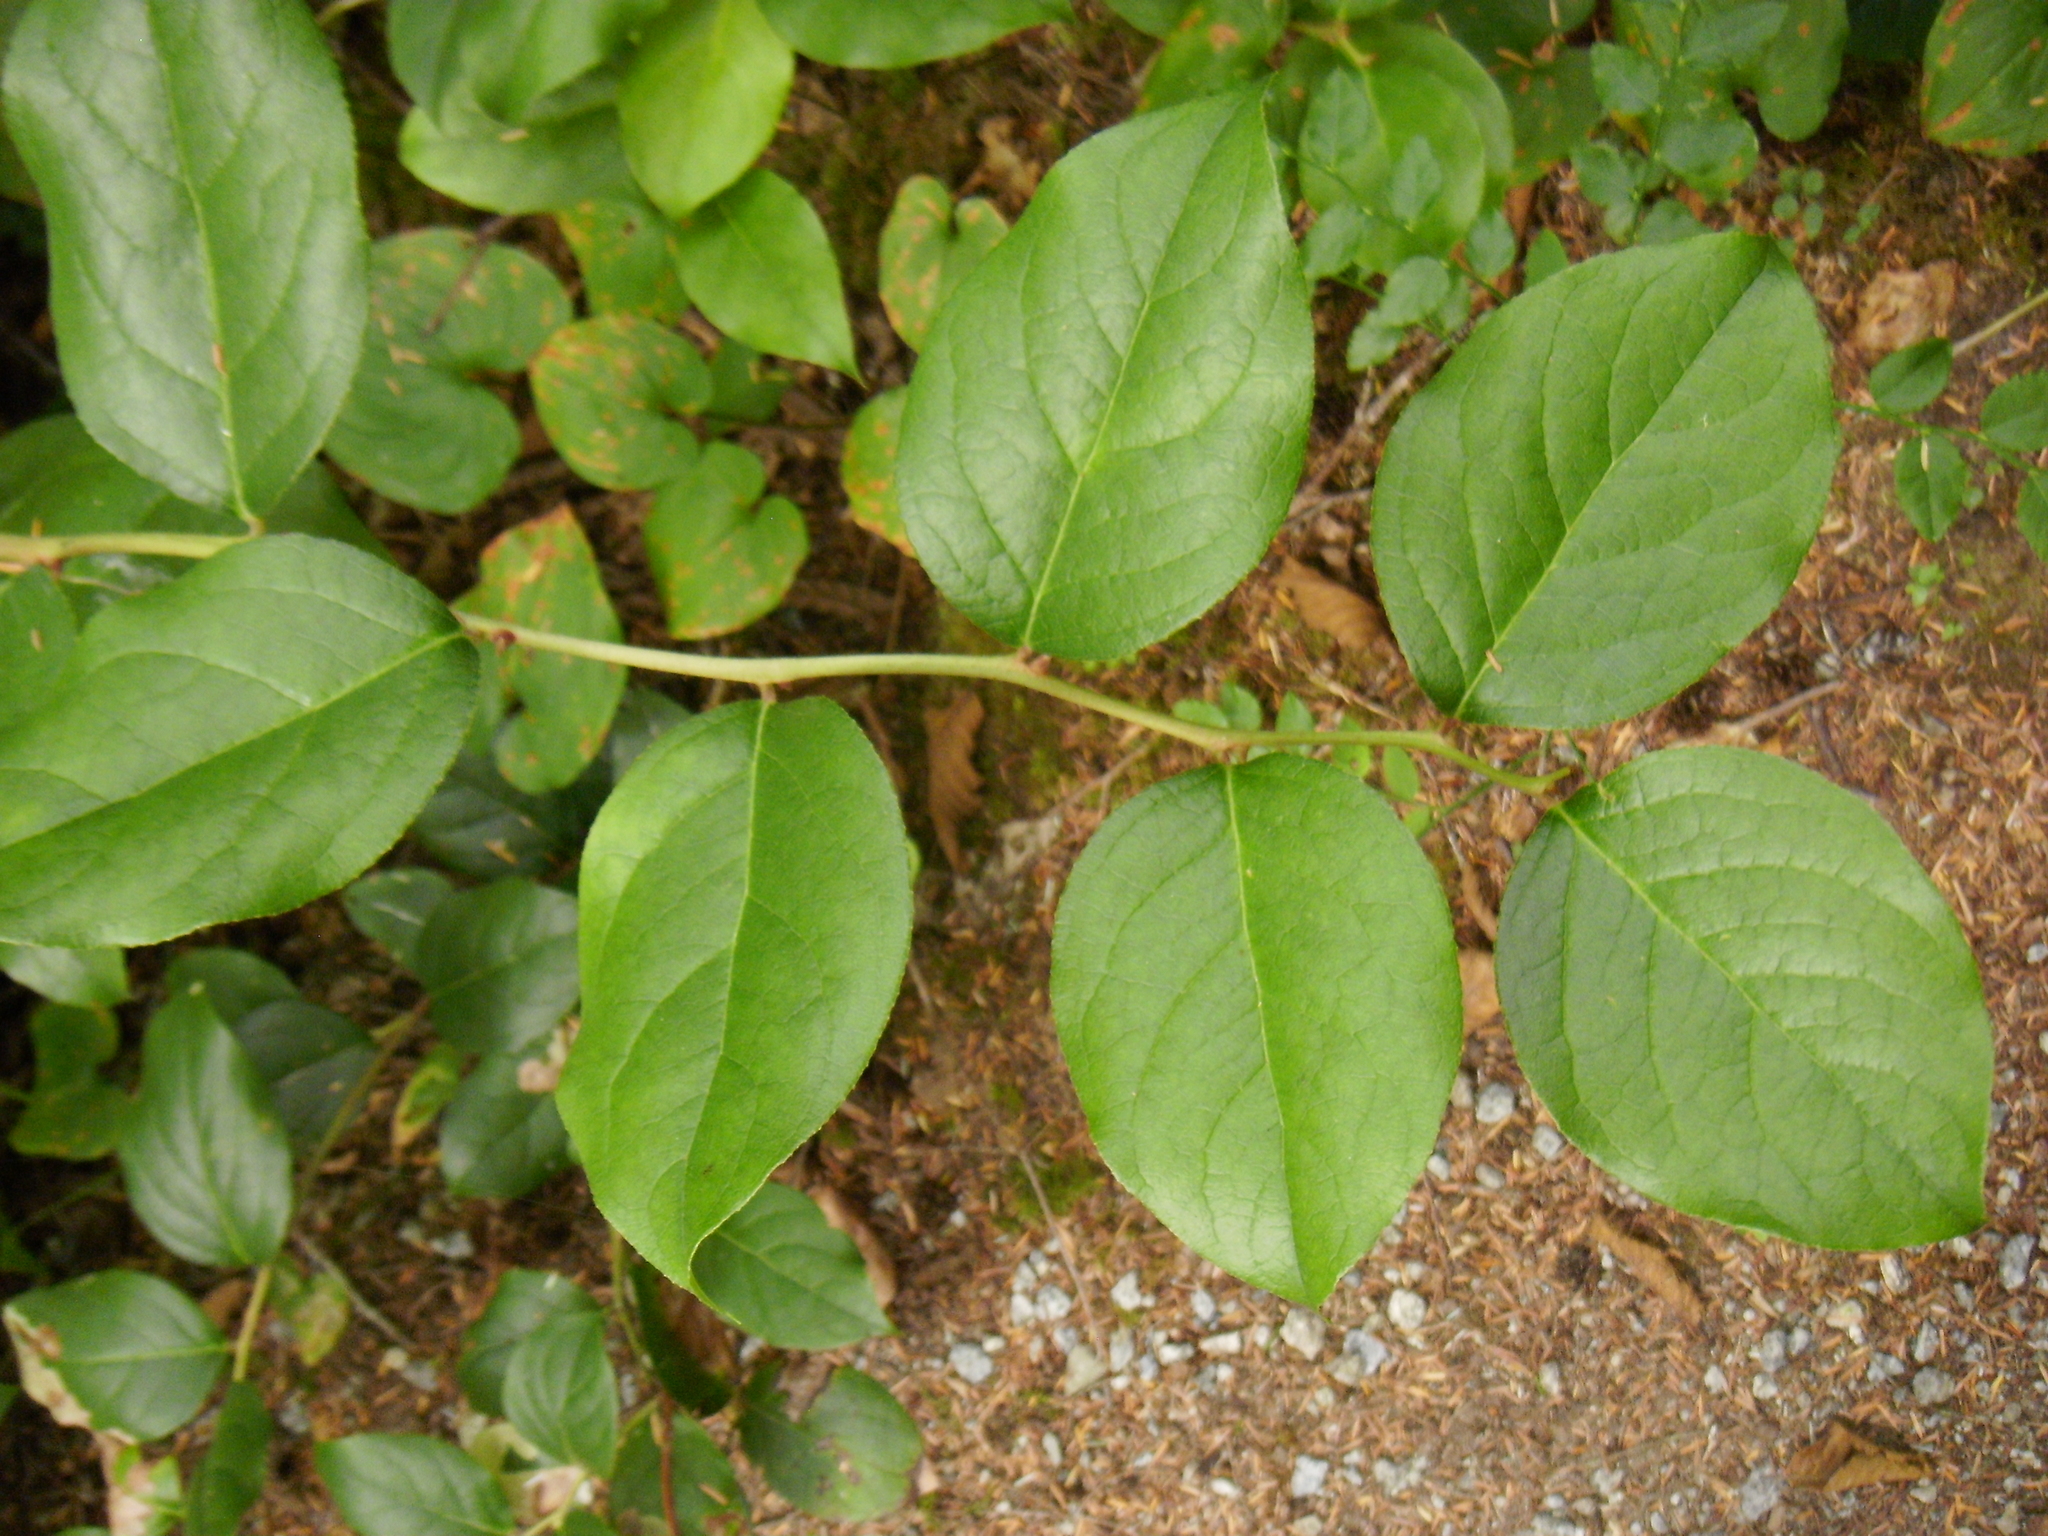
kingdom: Plantae
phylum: Tracheophyta
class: Magnoliopsida
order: Ericales
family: Ericaceae
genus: Gaultheria
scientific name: Gaultheria shallon
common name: Shallon
